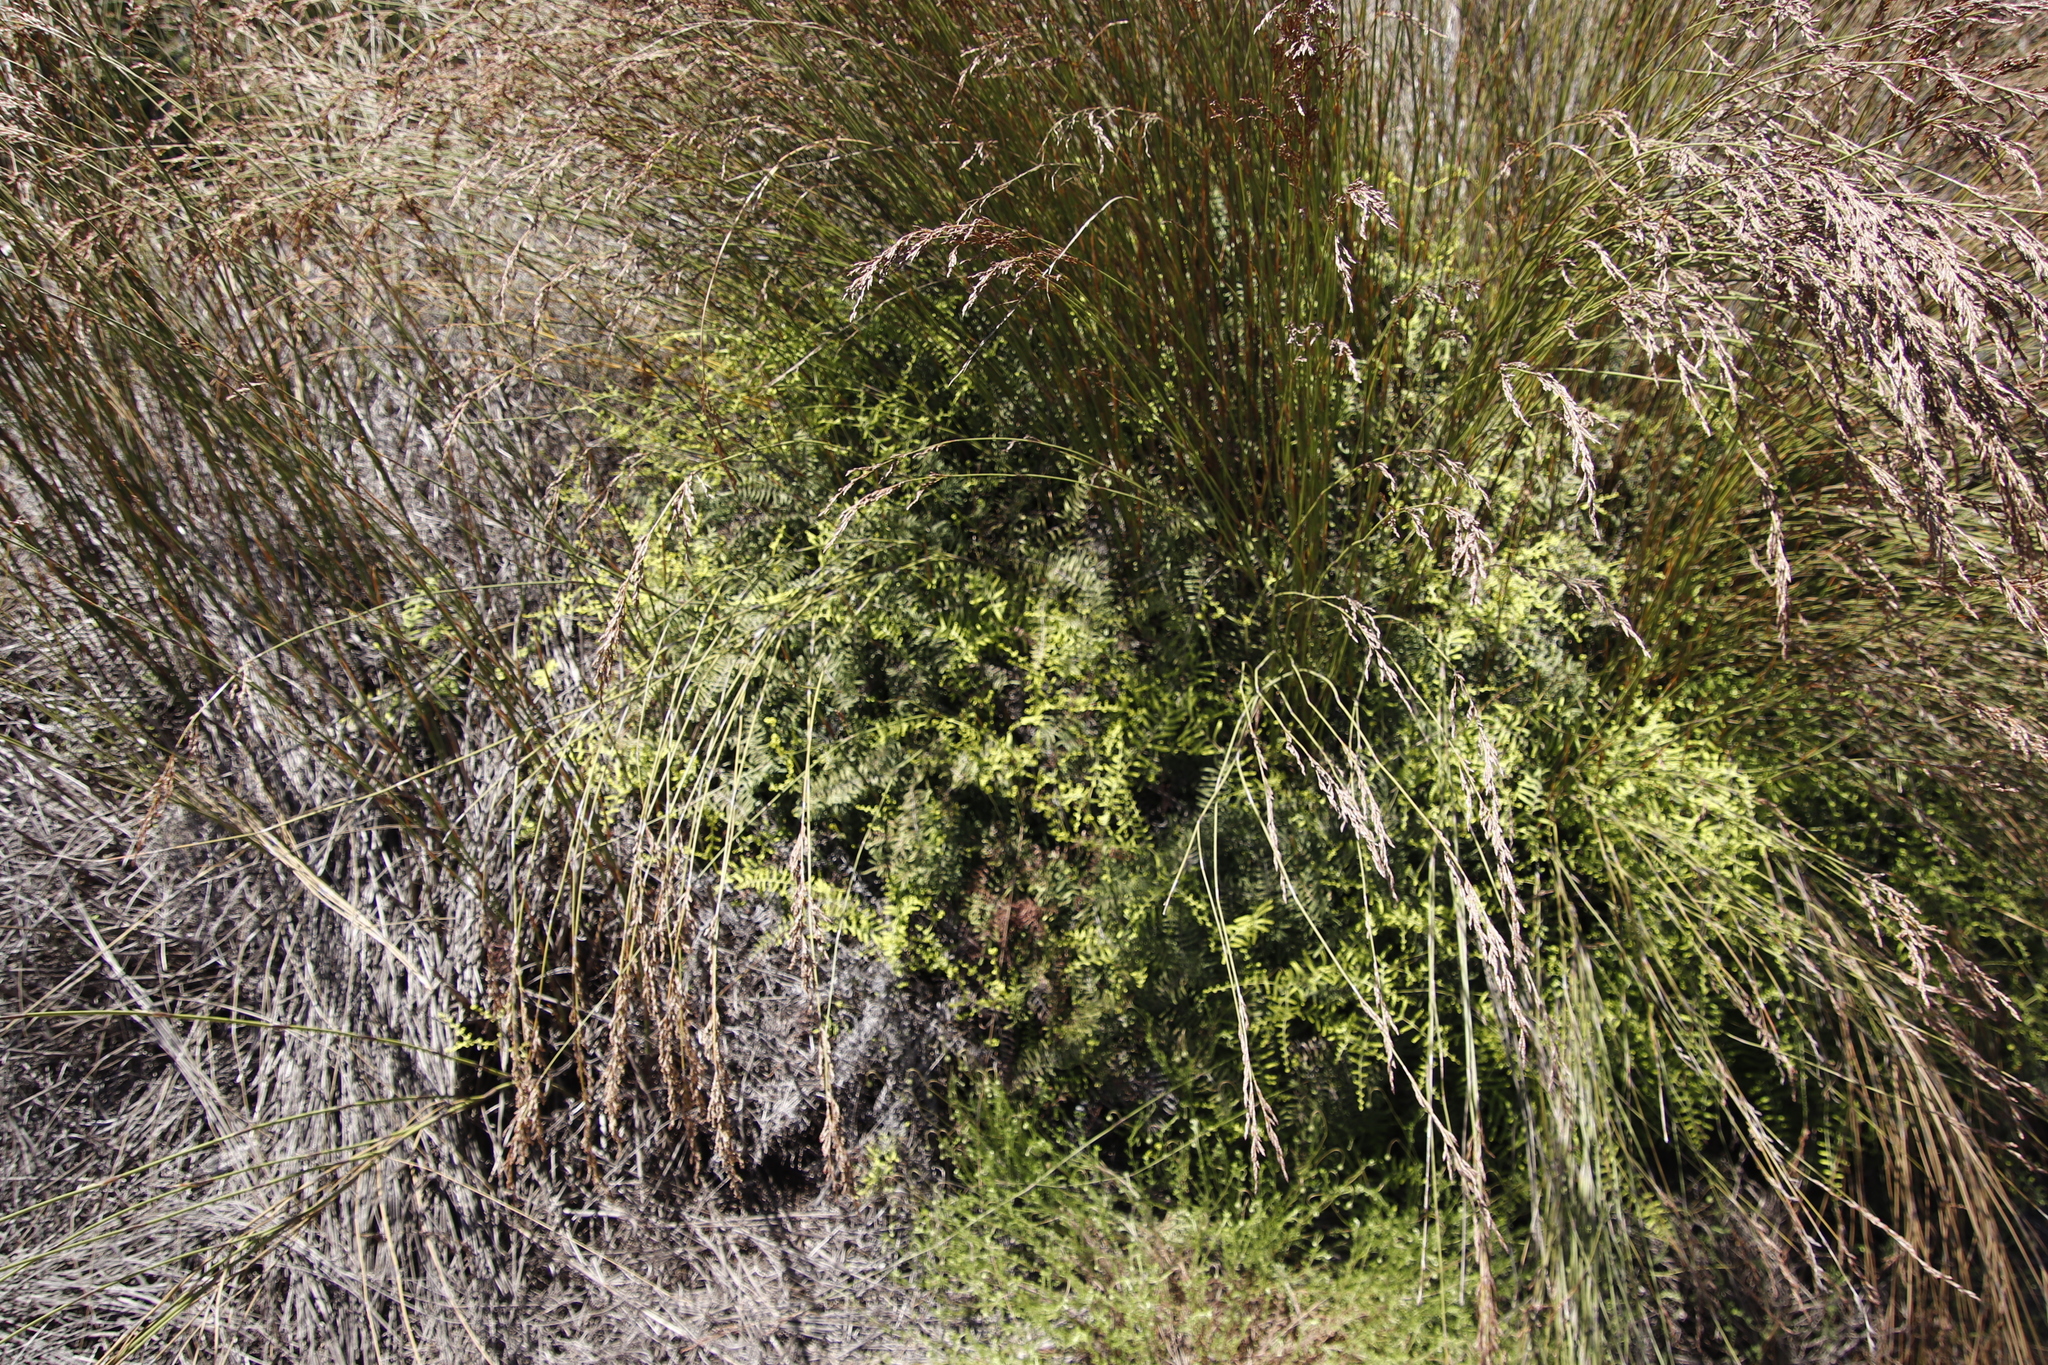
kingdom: Plantae
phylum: Tracheophyta
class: Polypodiopsida
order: Gleicheniales
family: Gleicheniaceae
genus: Gleichenia
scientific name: Gleichenia polypodioides
